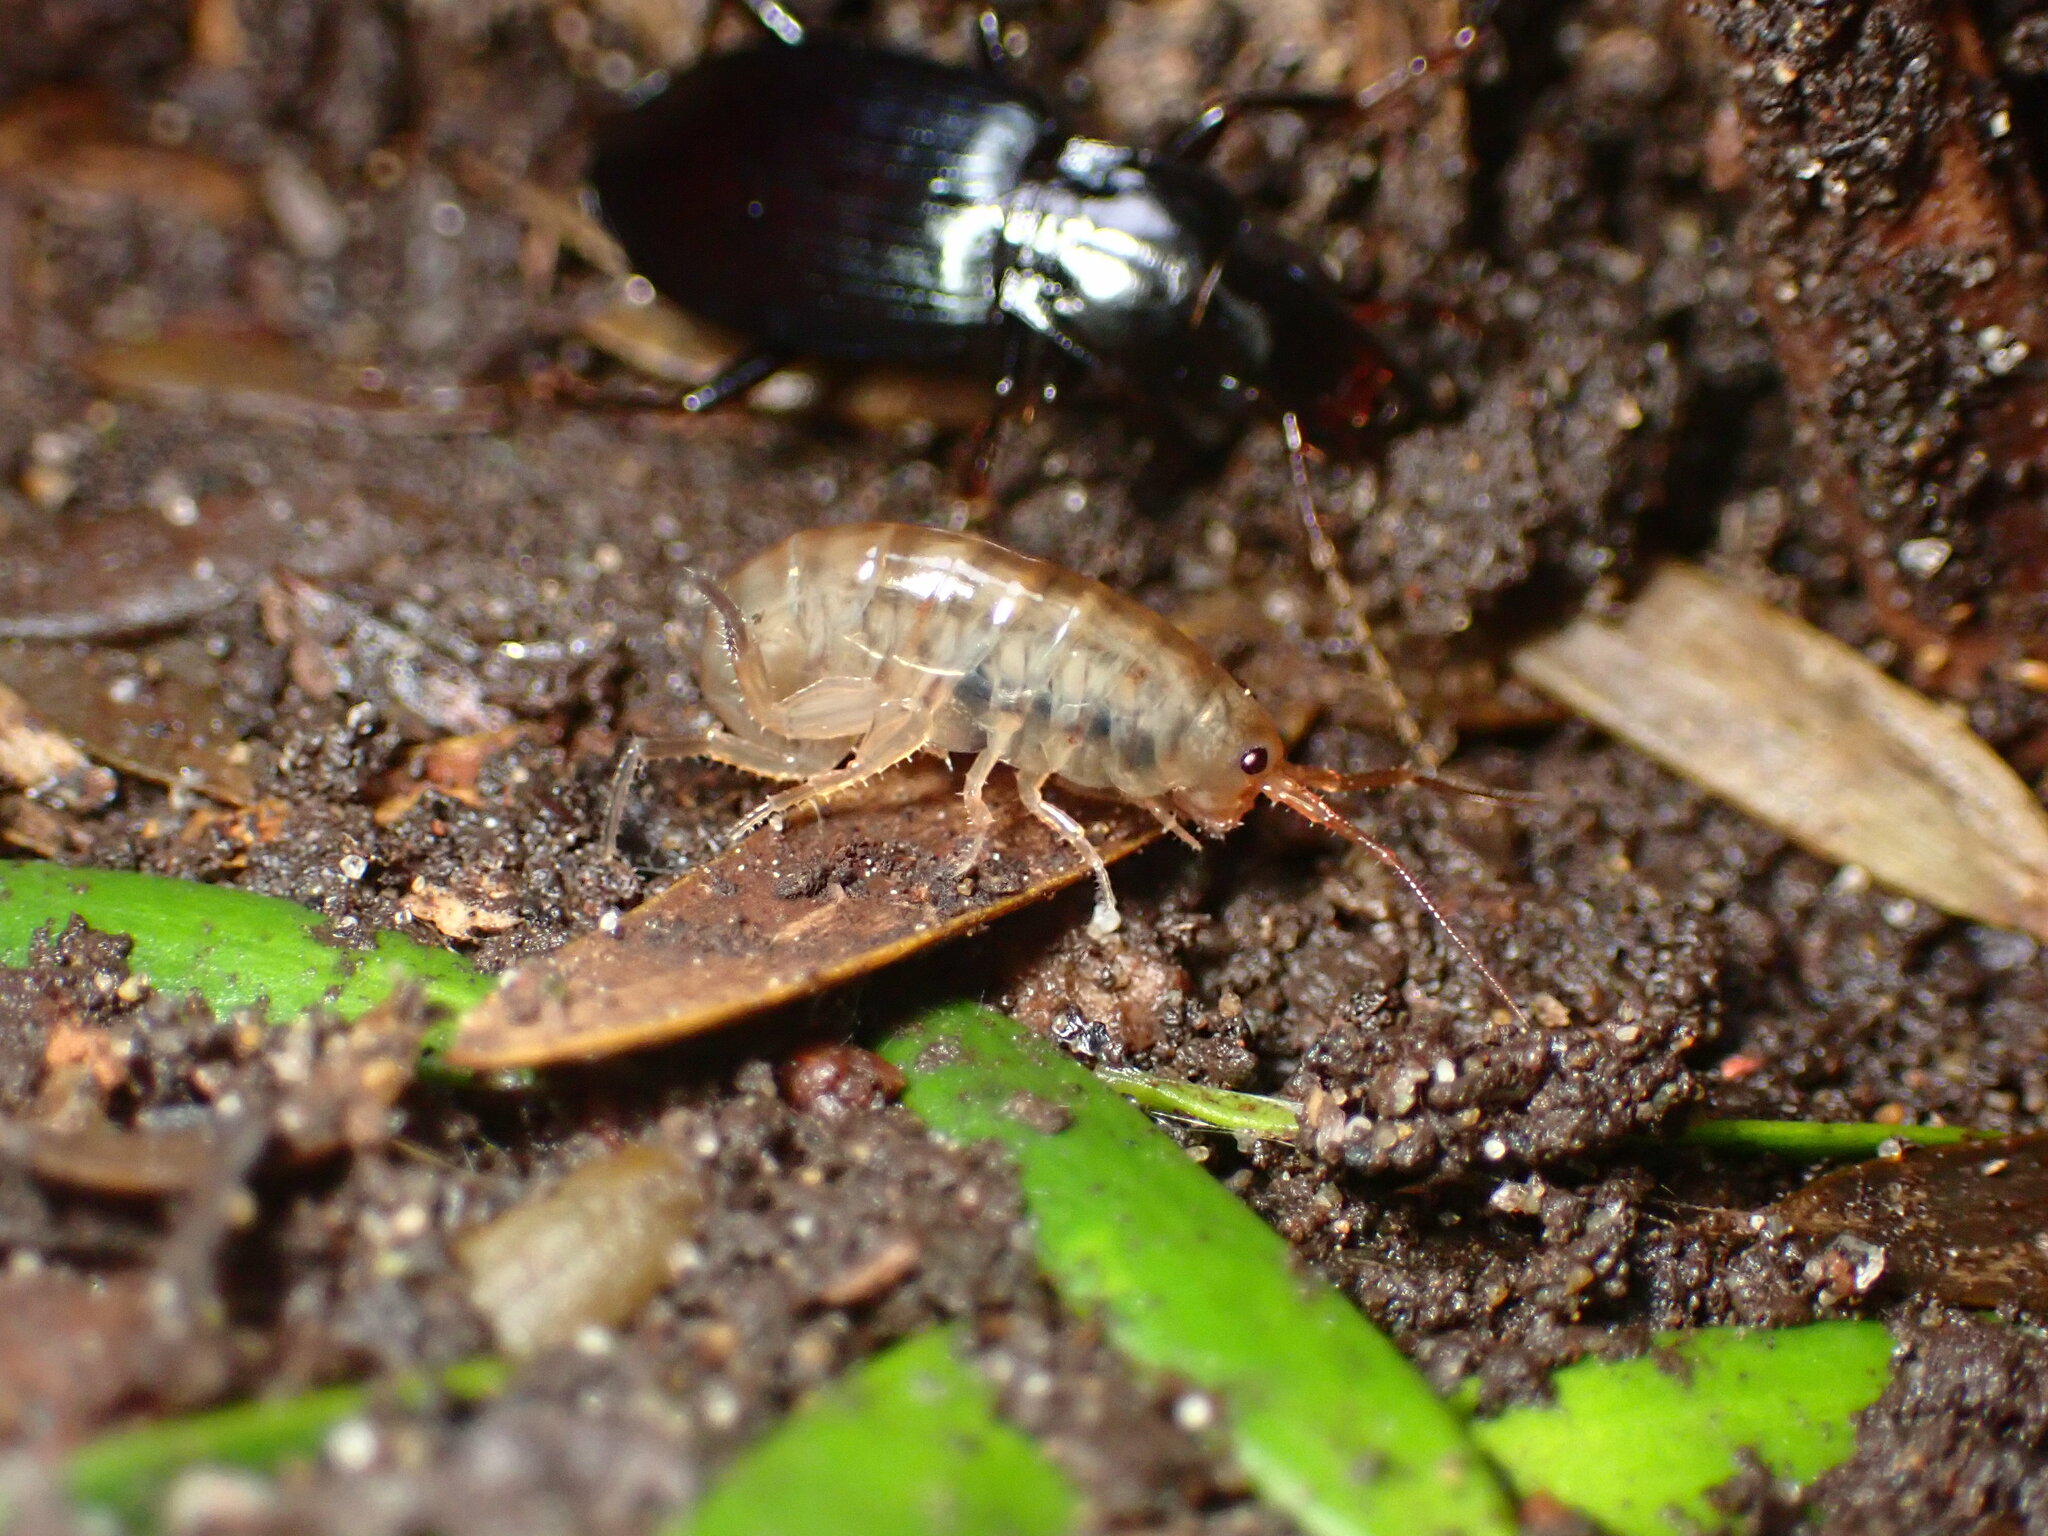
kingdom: Animalia
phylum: Arthropoda
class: Malacostraca
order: Amphipoda
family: Arcitalitridae
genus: Arcitalitrus
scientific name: Arcitalitrus sylvaticus
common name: Gammarid amphipod
